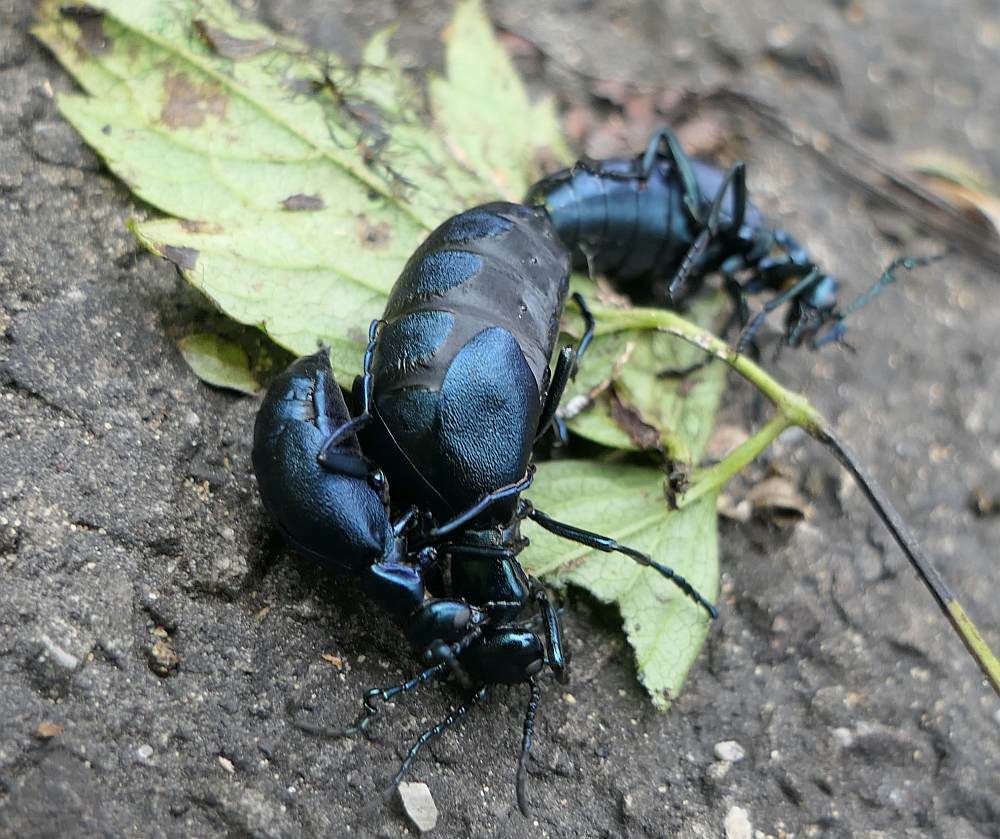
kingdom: Animalia
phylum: Arthropoda
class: Insecta
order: Coleoptera
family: Meloidae
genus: Meloe
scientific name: Meloe impressus
